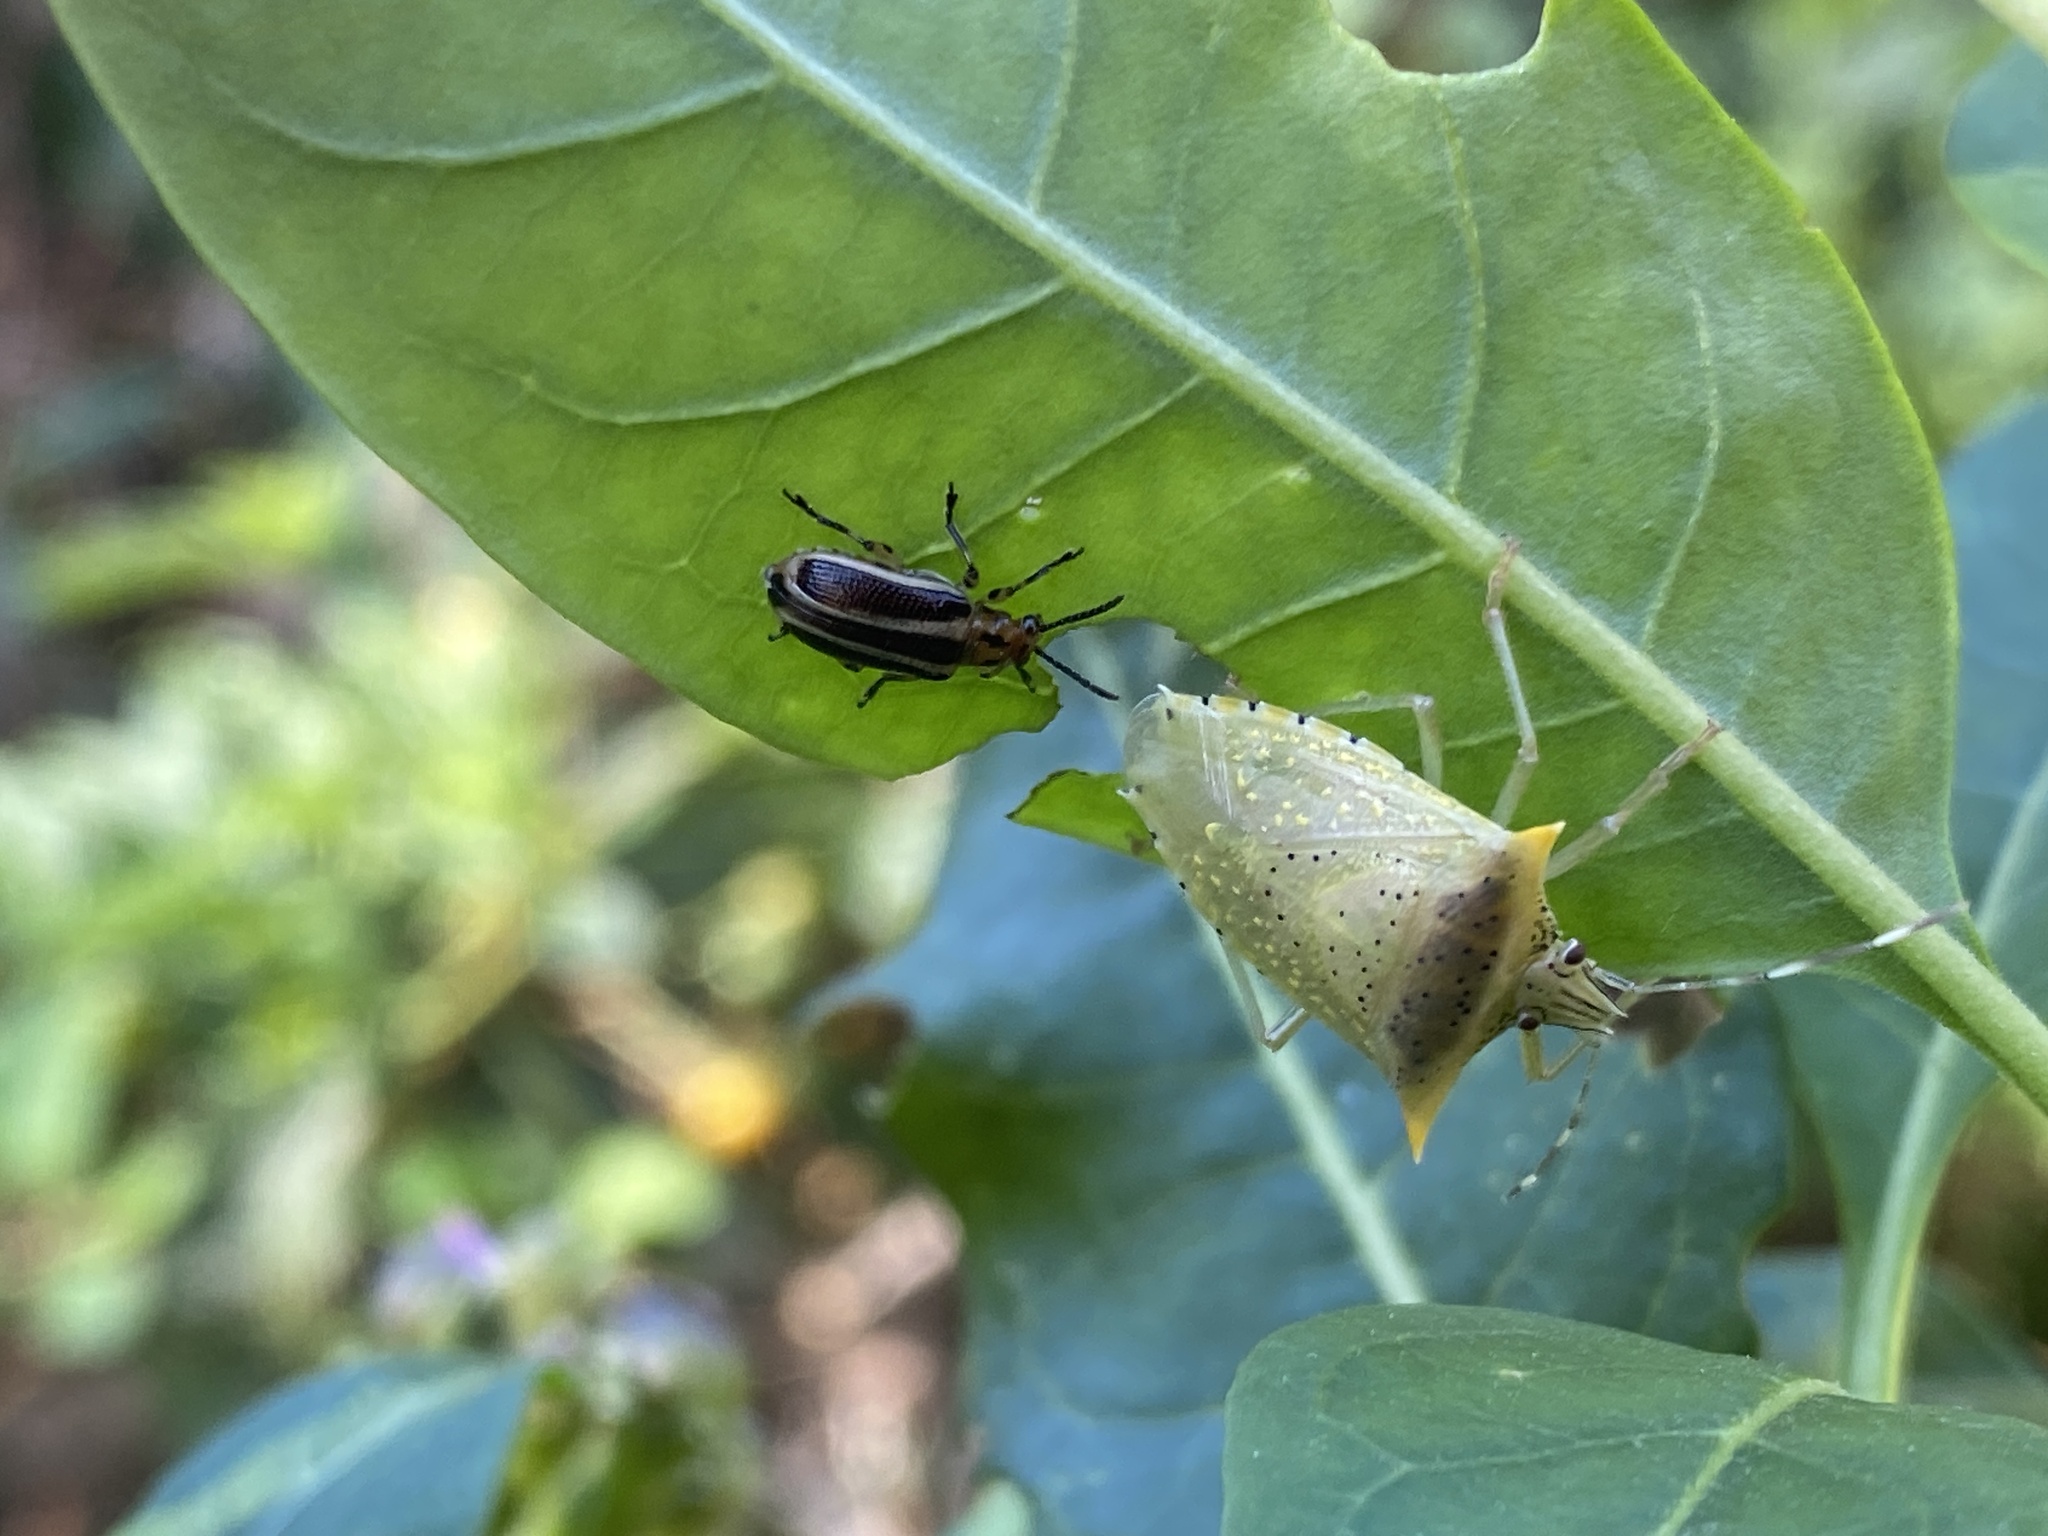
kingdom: Animalia
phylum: Arthropoda
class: Insecta
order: Hemiptera
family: Pentatomidae
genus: Arvelius
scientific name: Arvelius albopunctatus
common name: Tomato stink bug
